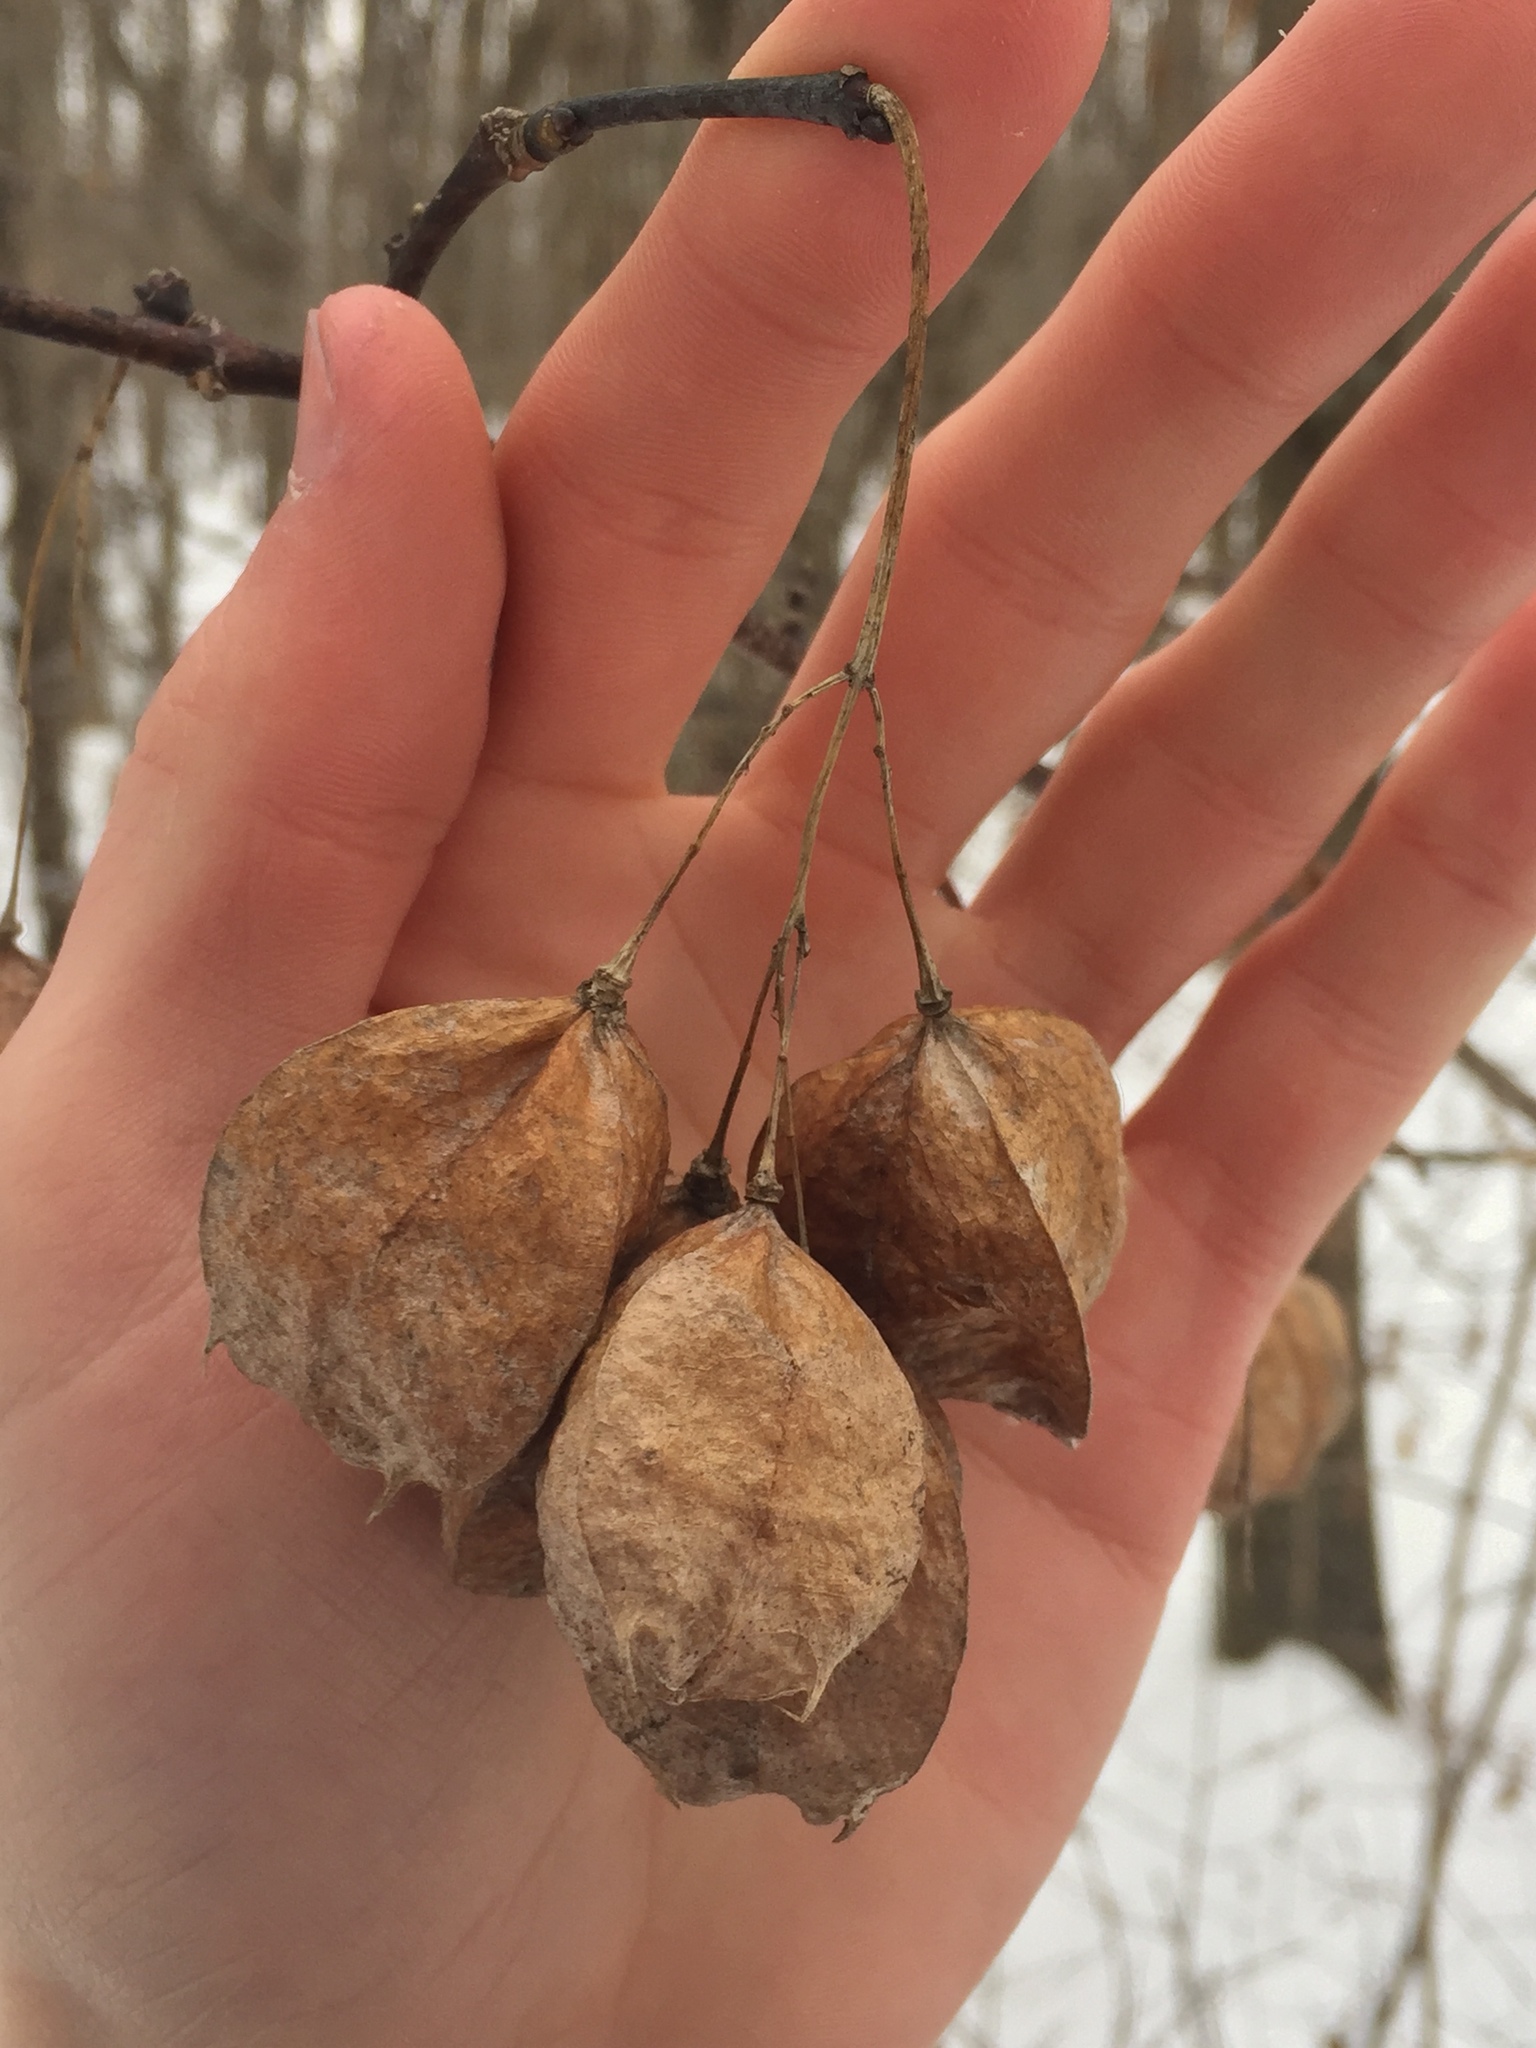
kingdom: Plantae
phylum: Tracheophyta
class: Magnoliopsida
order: Crossosomatales
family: Staphyleaceae
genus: Staphylea
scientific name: Staphylea trifolia
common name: American bladdernut
